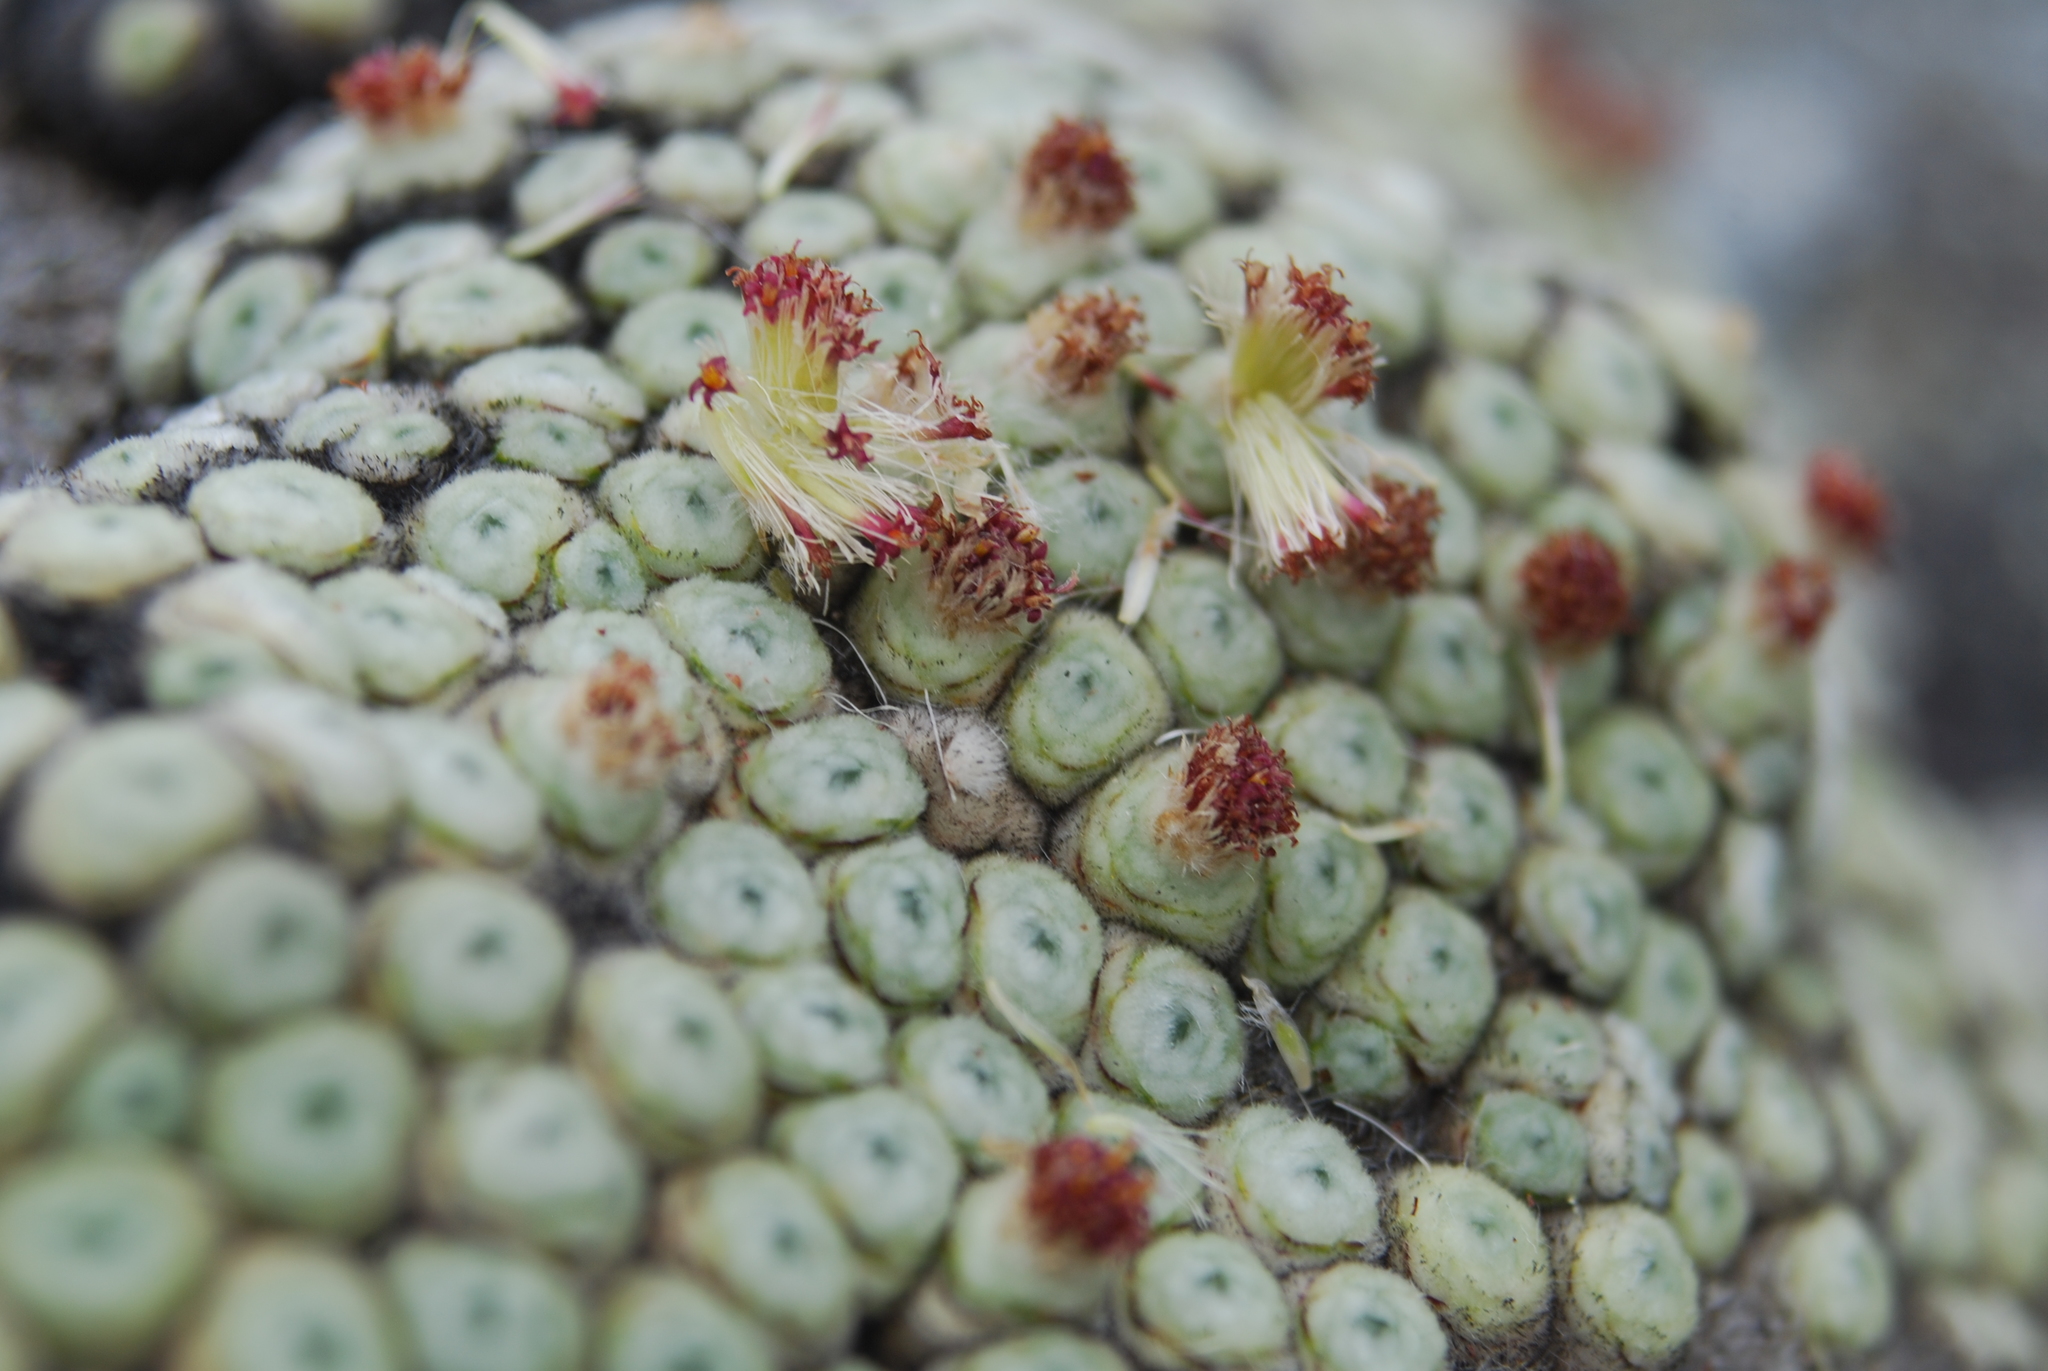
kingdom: Plantae
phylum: Tracheophyta
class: Magnoliopsida
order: Asterales
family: Asteraceae
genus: Raoulia
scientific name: Raoulia buchananii
